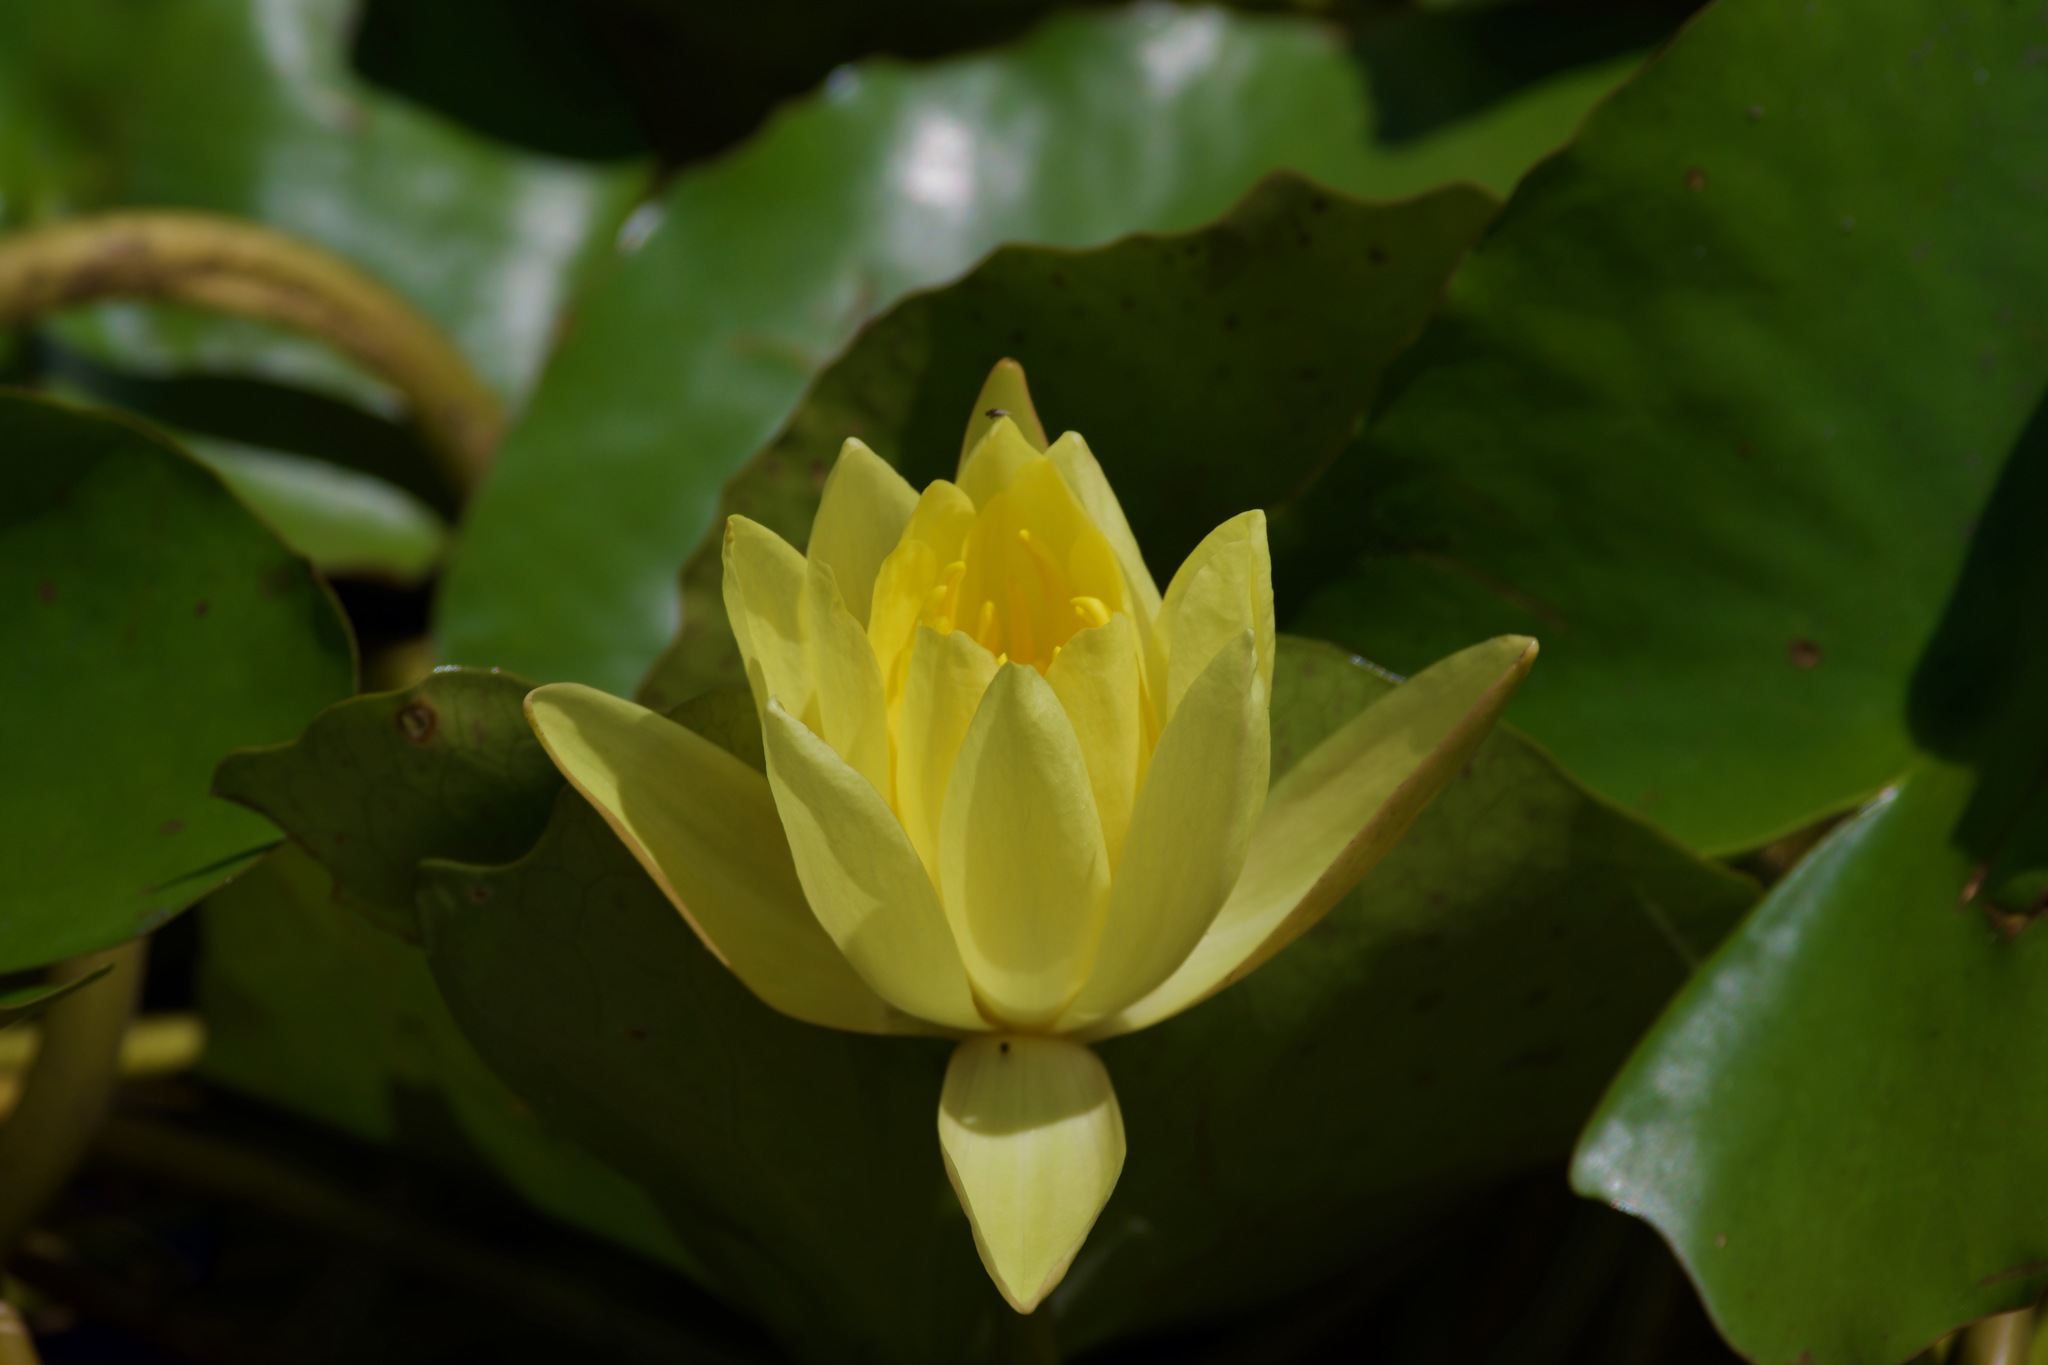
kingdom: Plantae
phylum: Tracheophyta
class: Magnoliopsida
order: Nymphaeales
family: Nymphaeaceae
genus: Nymphaea
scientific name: Nymphaea mexicana
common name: Banana water-lily
